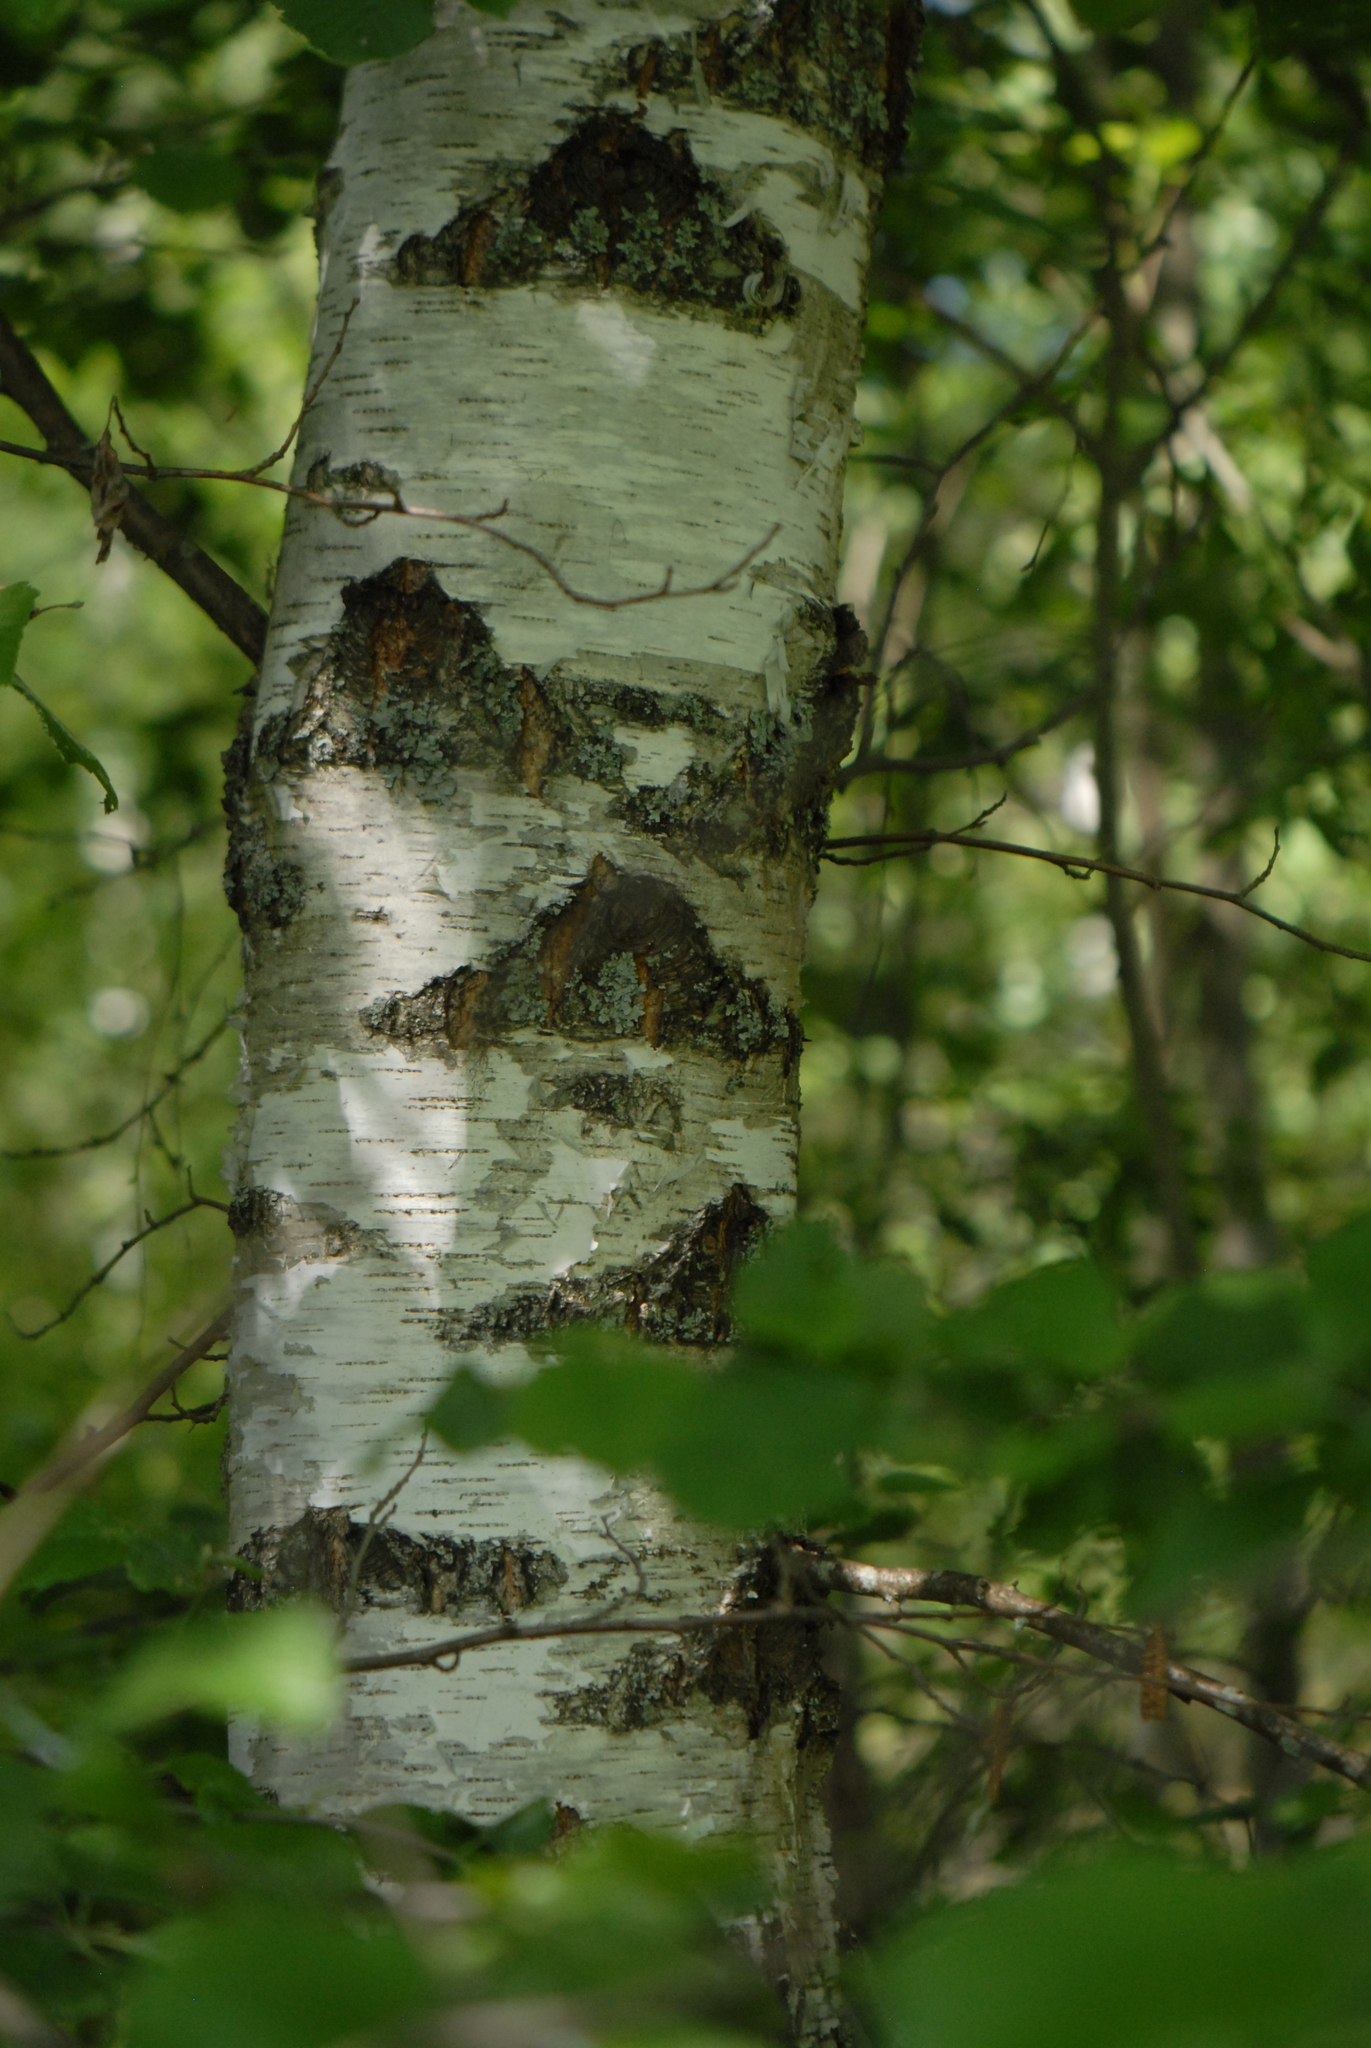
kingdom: Plantae
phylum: Tracheophyta
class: Magnoliopsida
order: Fagales
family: Betulaceae
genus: Betula
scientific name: Betula pendula
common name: Silver birch
